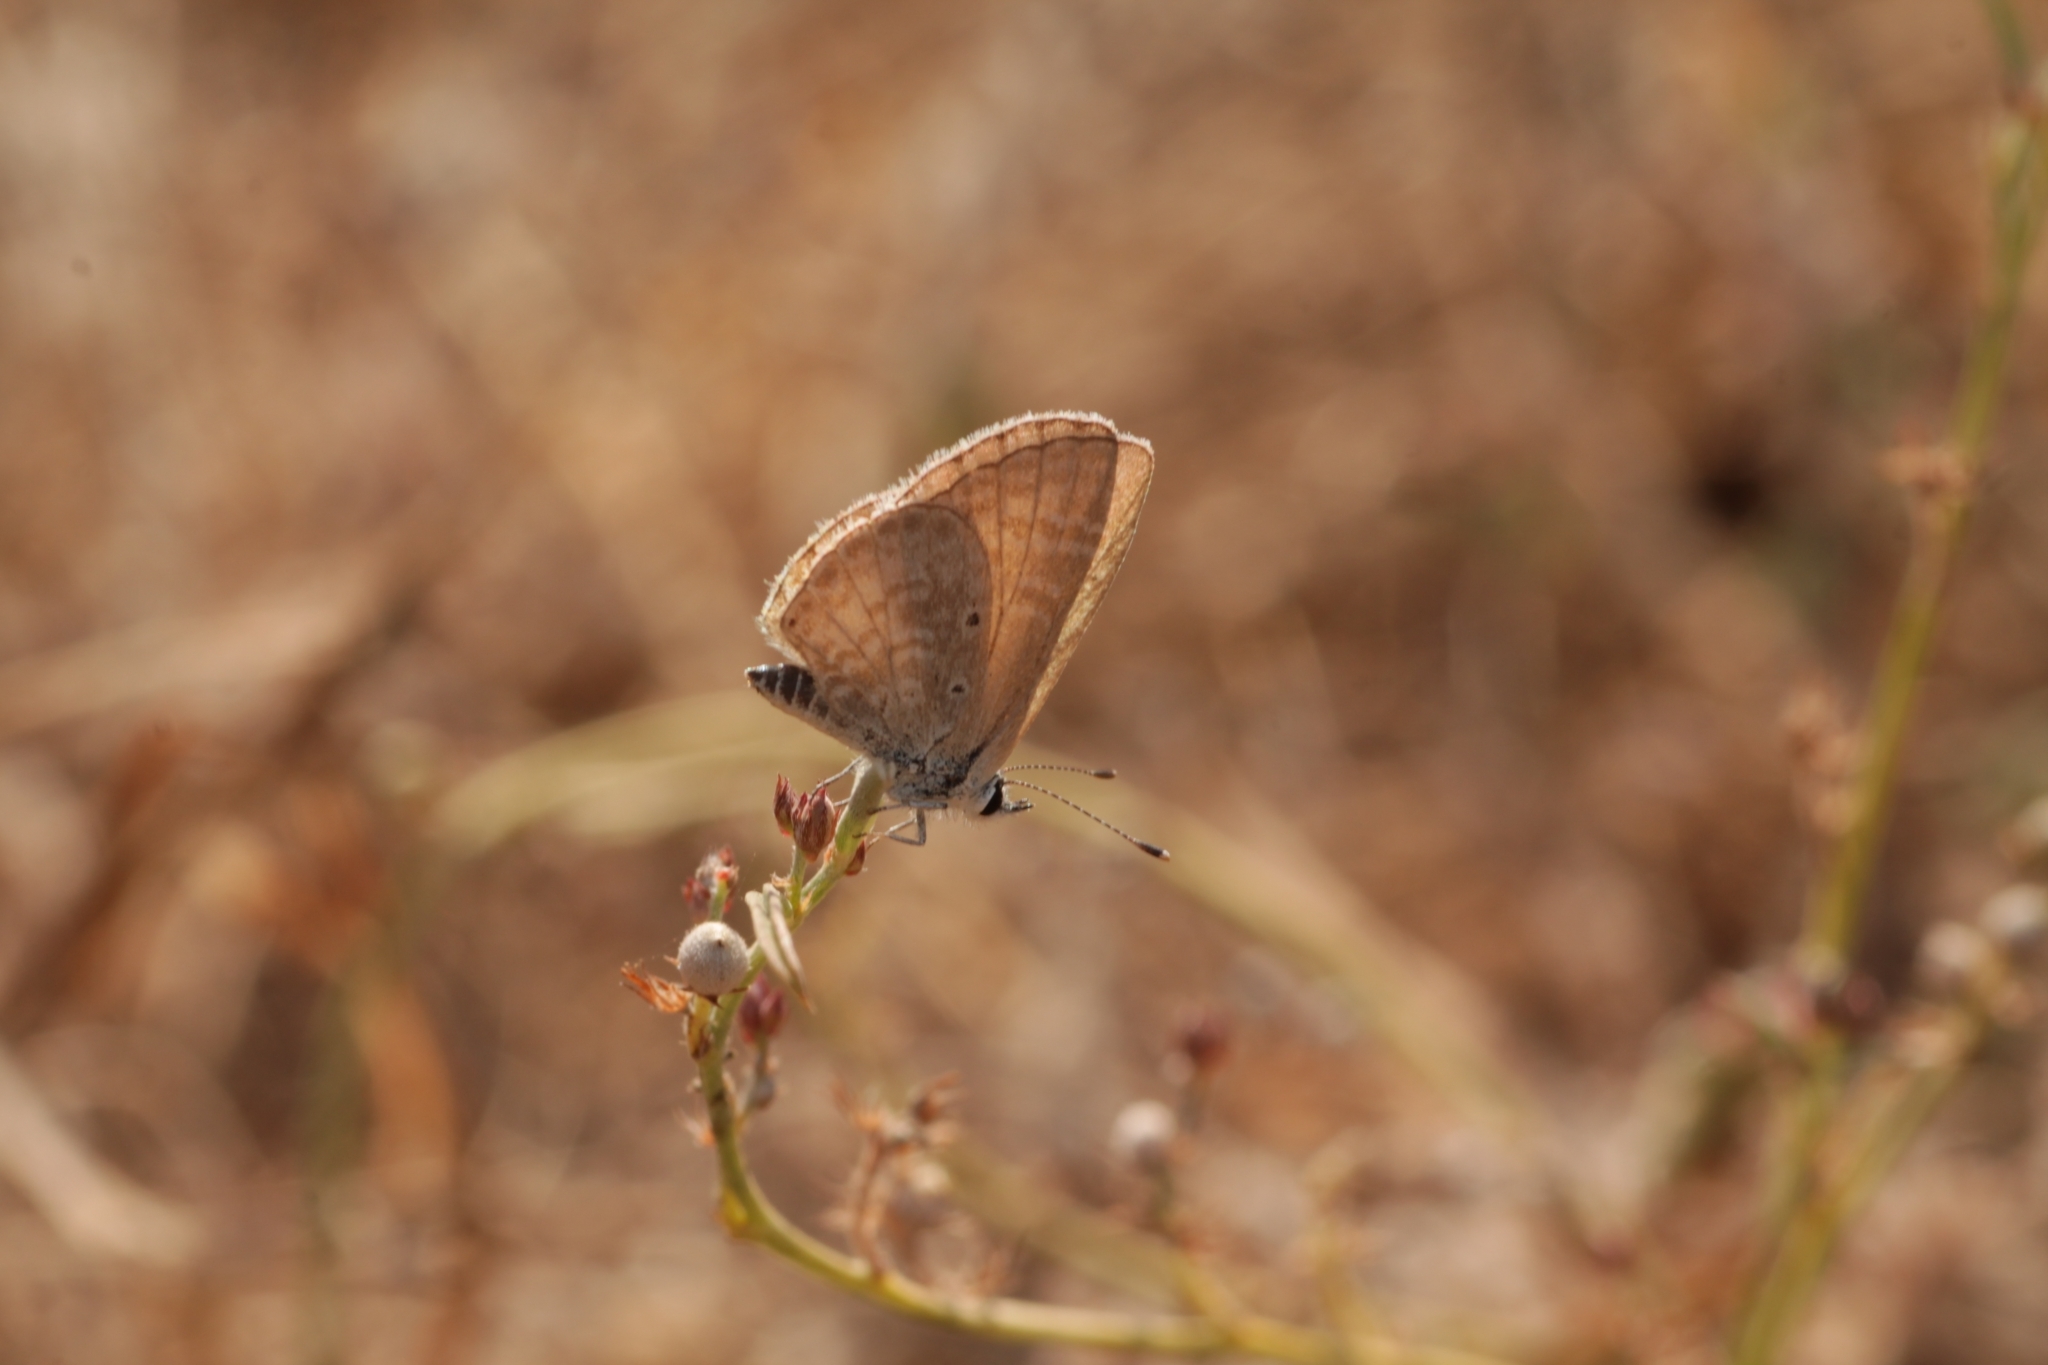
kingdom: Animalia
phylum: Arthropoda
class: Insecta
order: Lepidoptera
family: Lycaenidae
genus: Azanus
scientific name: Azanus uranus
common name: Dull babul blue
